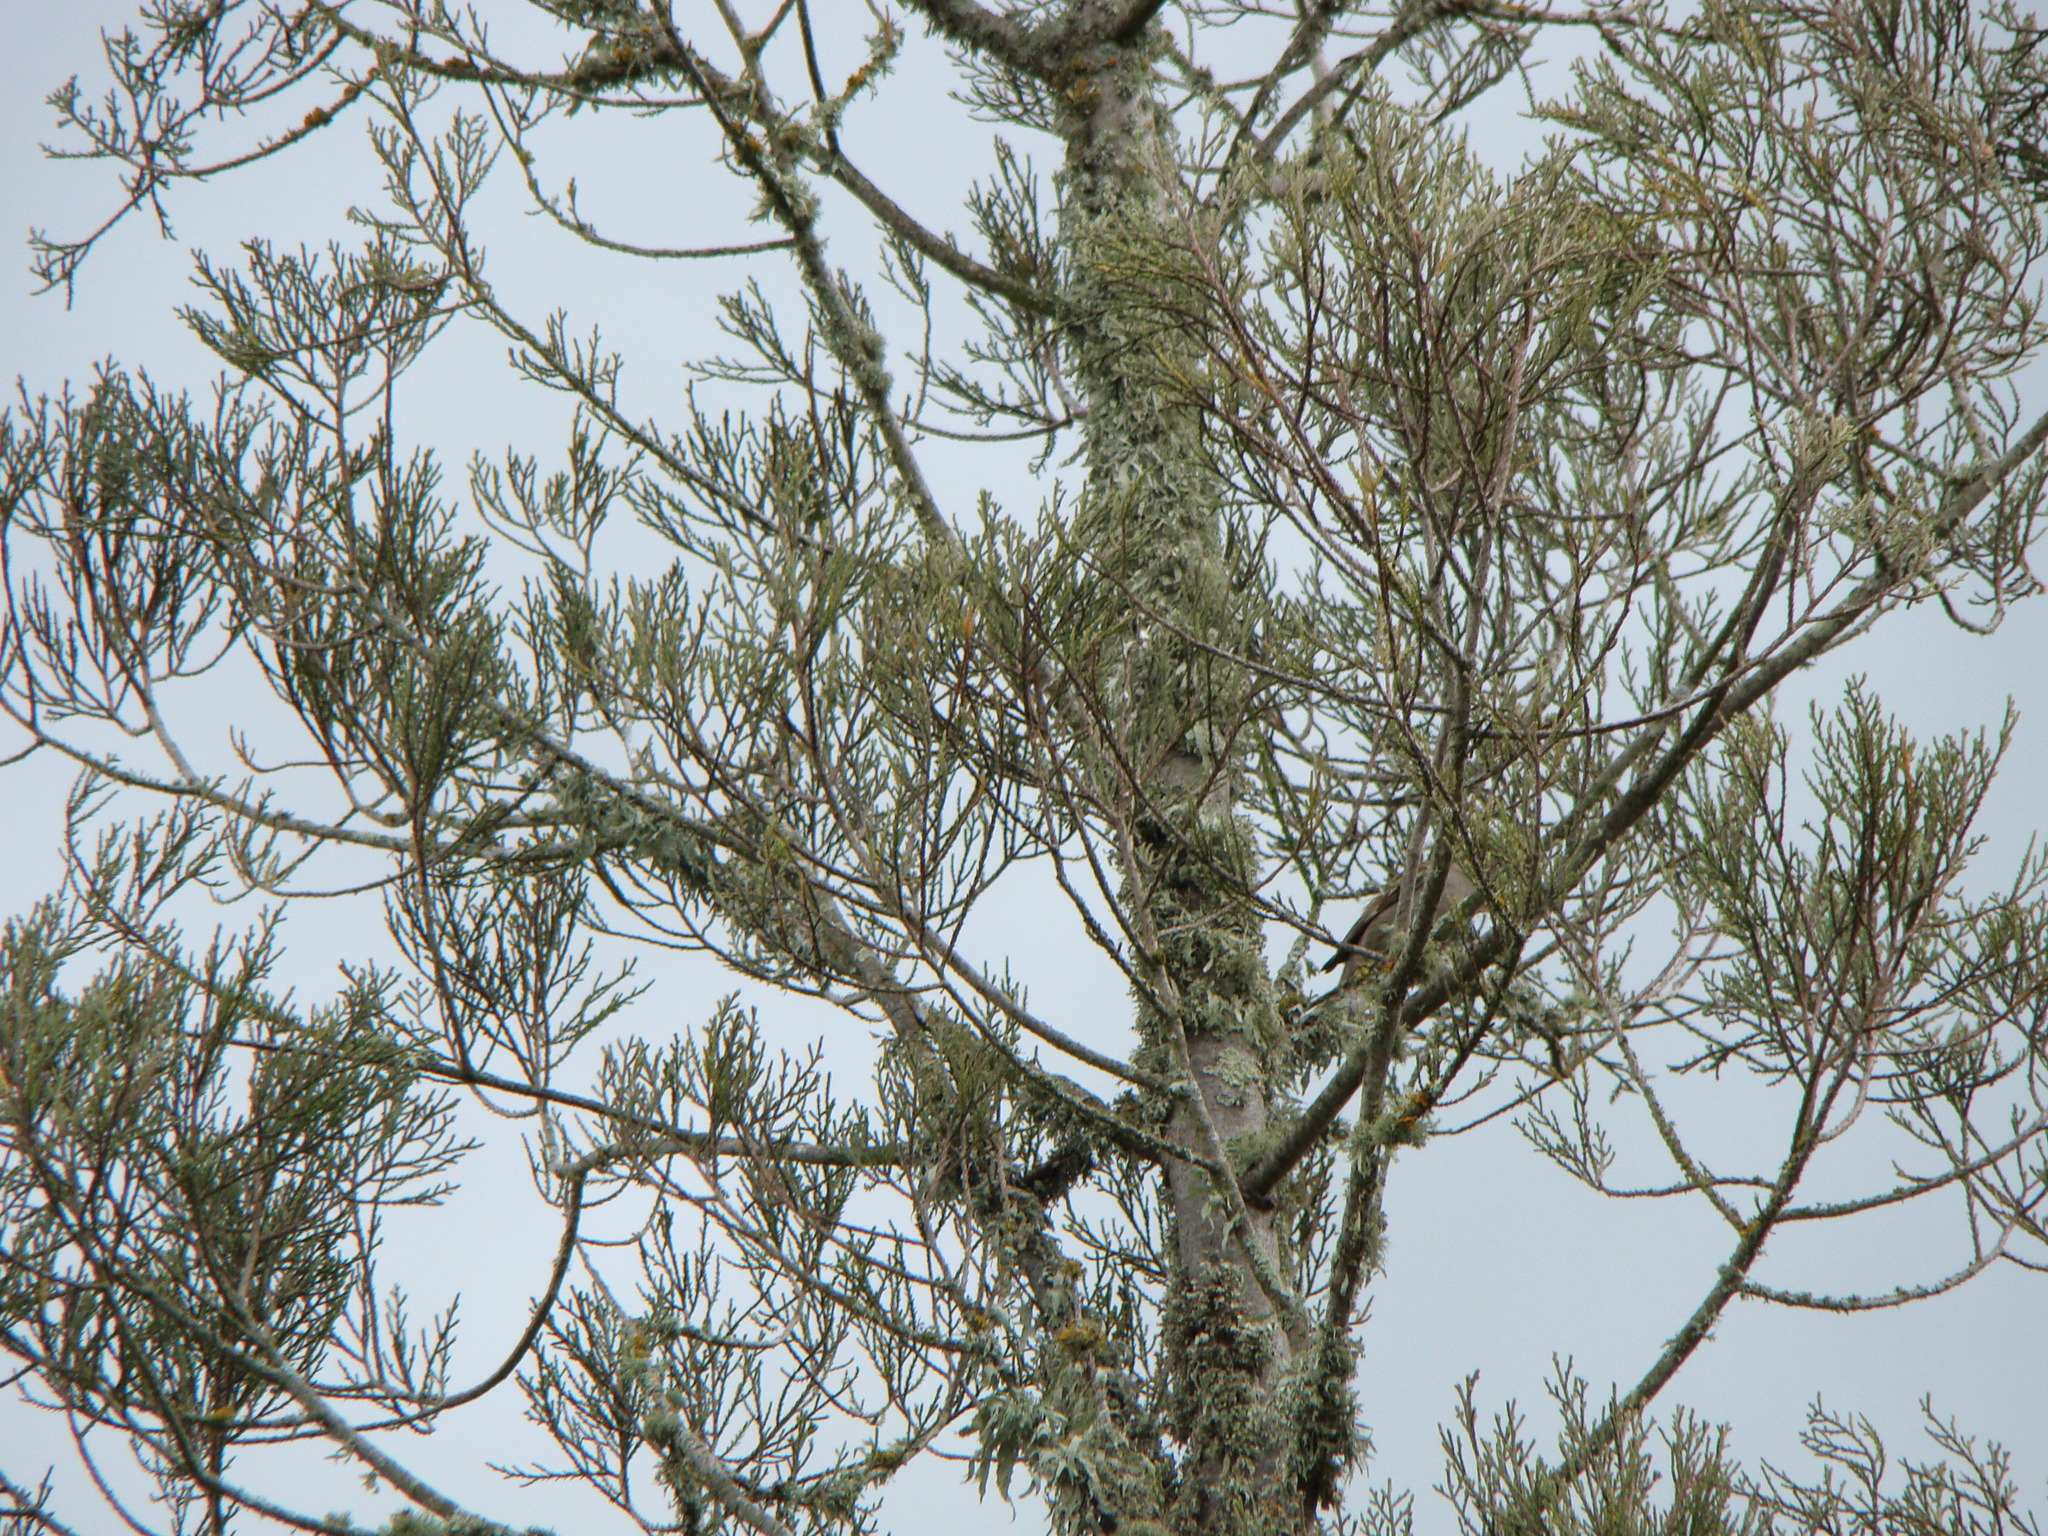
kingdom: Plantae
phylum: Tracheophyta
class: Pinopsida
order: Pinales
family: Podocarpaceae
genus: Dacrycarpus
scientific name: Dacrycarpus dacrydioides
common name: White pine
